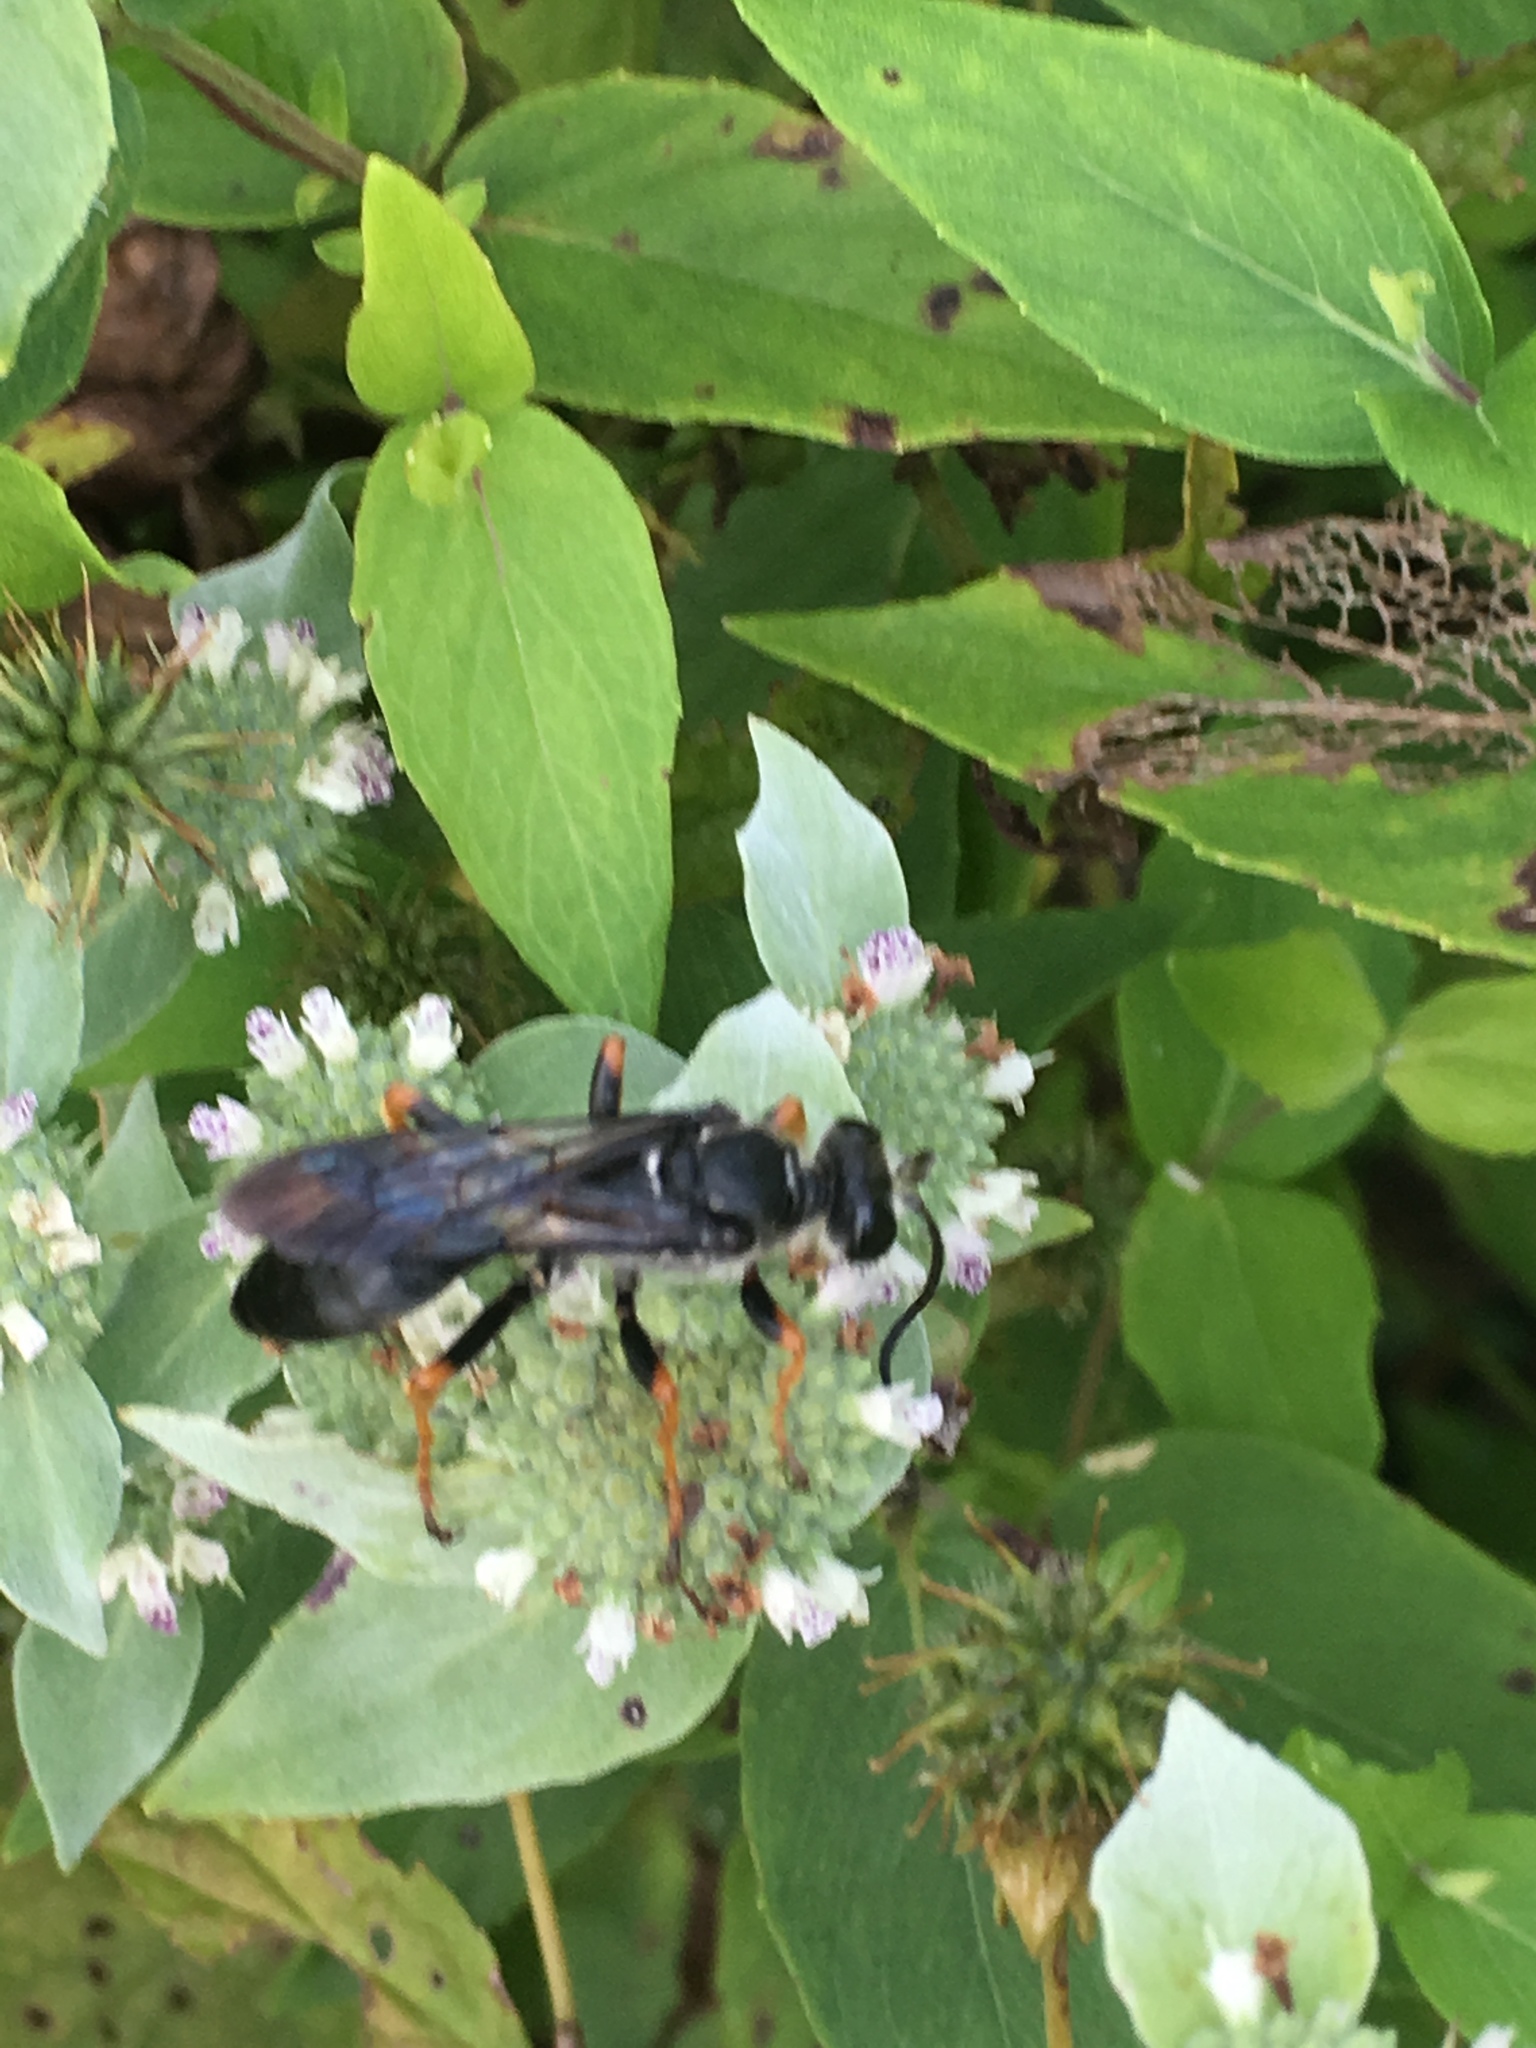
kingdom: Animalia
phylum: Arthropoda
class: Insecta
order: Hymenoptera
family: Sphecidae
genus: Sphex
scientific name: Sphex nudus
